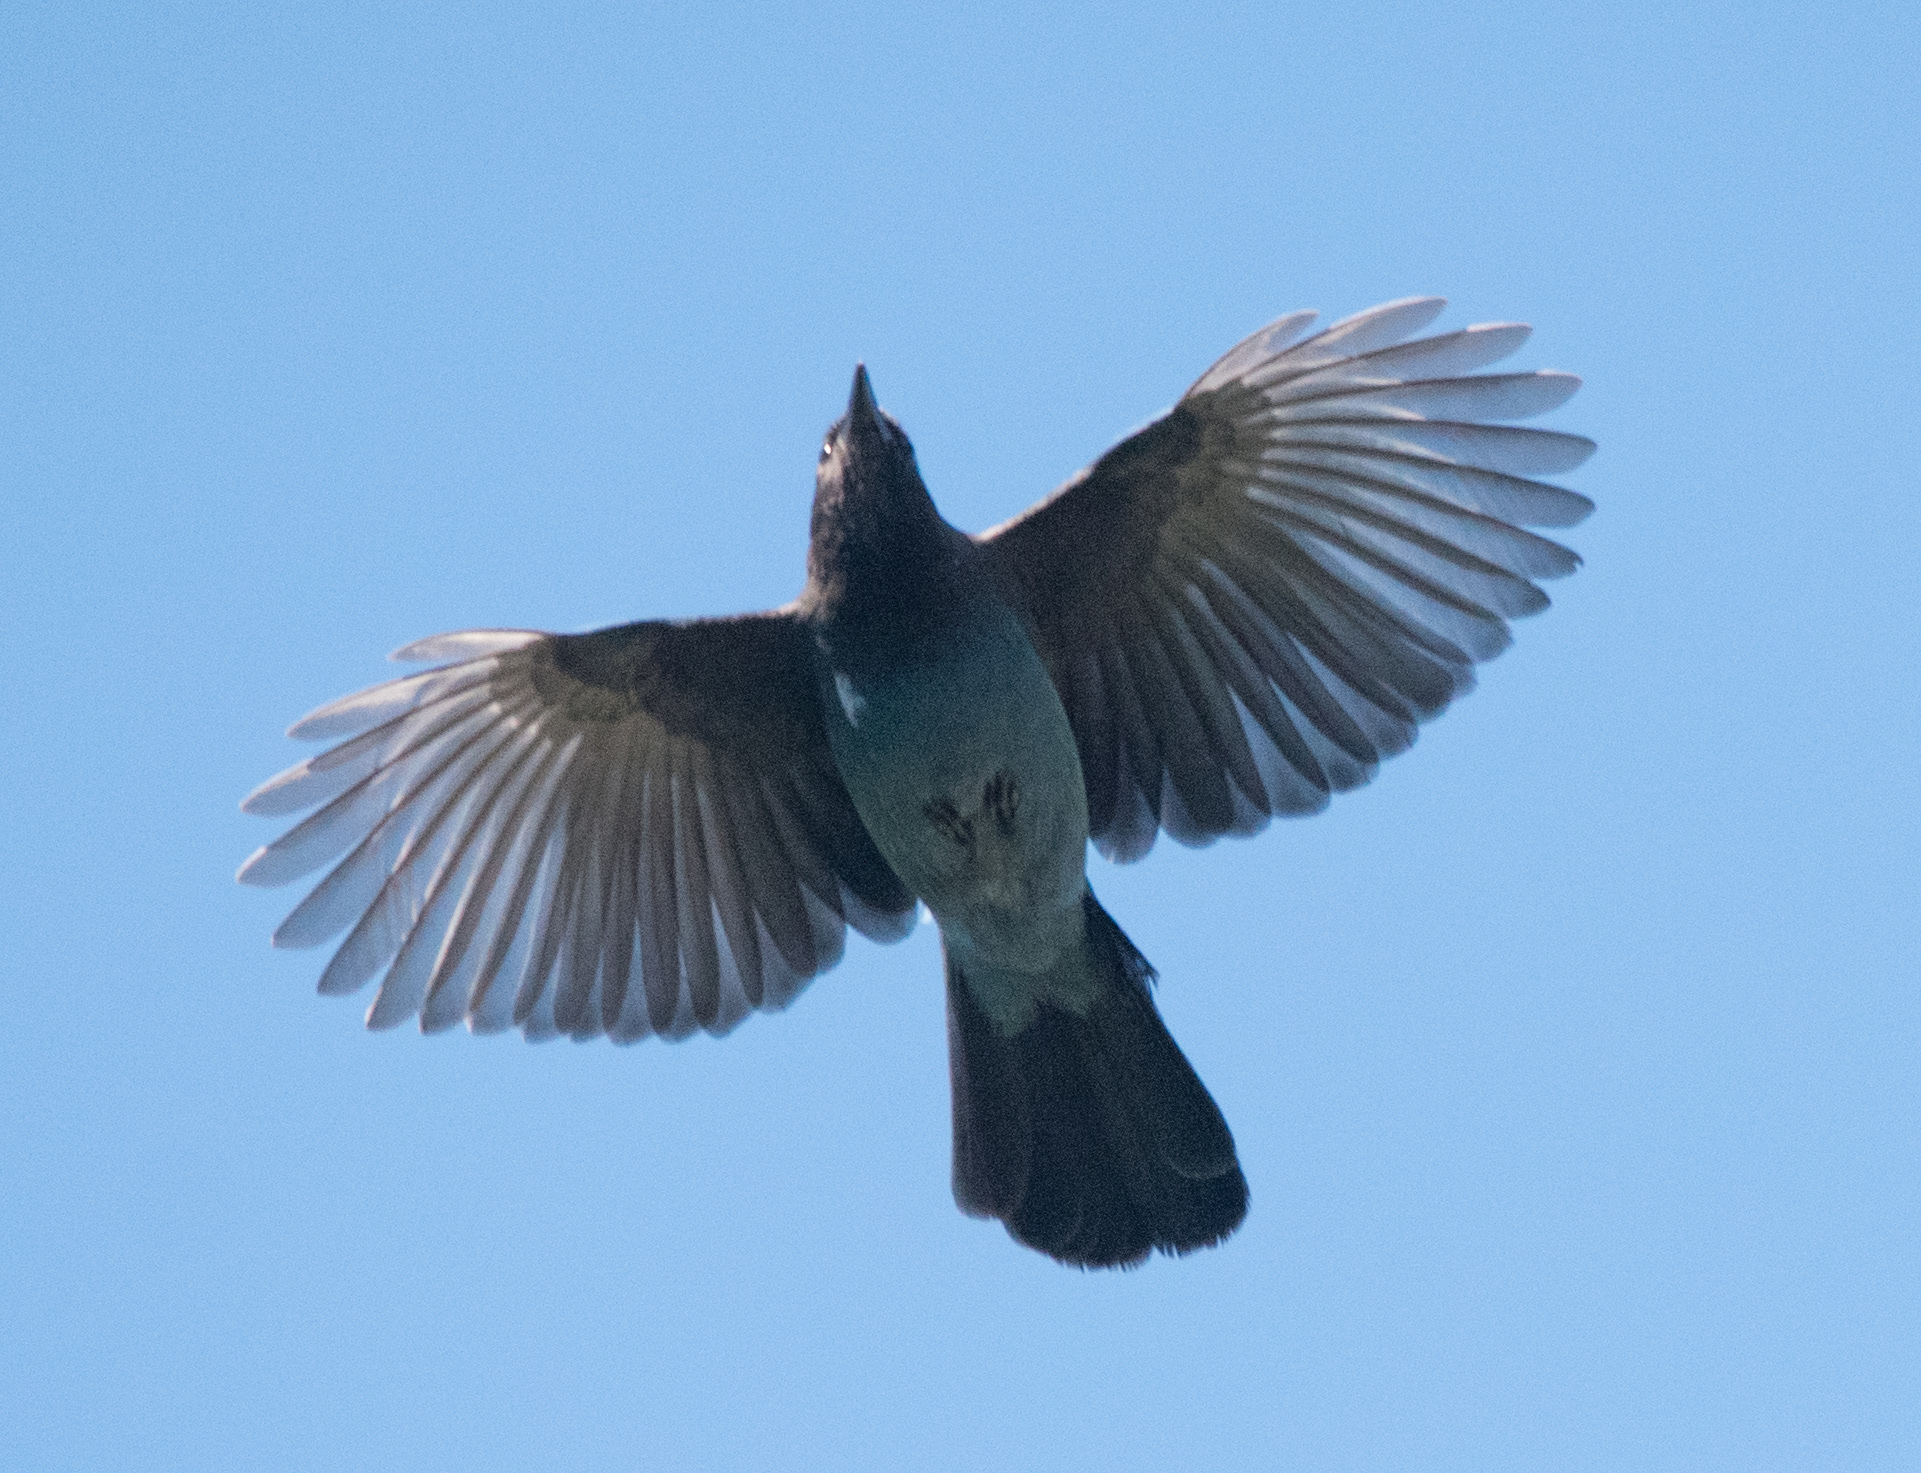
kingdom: Animalia
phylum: Chordata
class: Aves
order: Passeriformes
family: Corvidae
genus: Cyanocitta
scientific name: Cyanocitta stelleri
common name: Steller's jay
